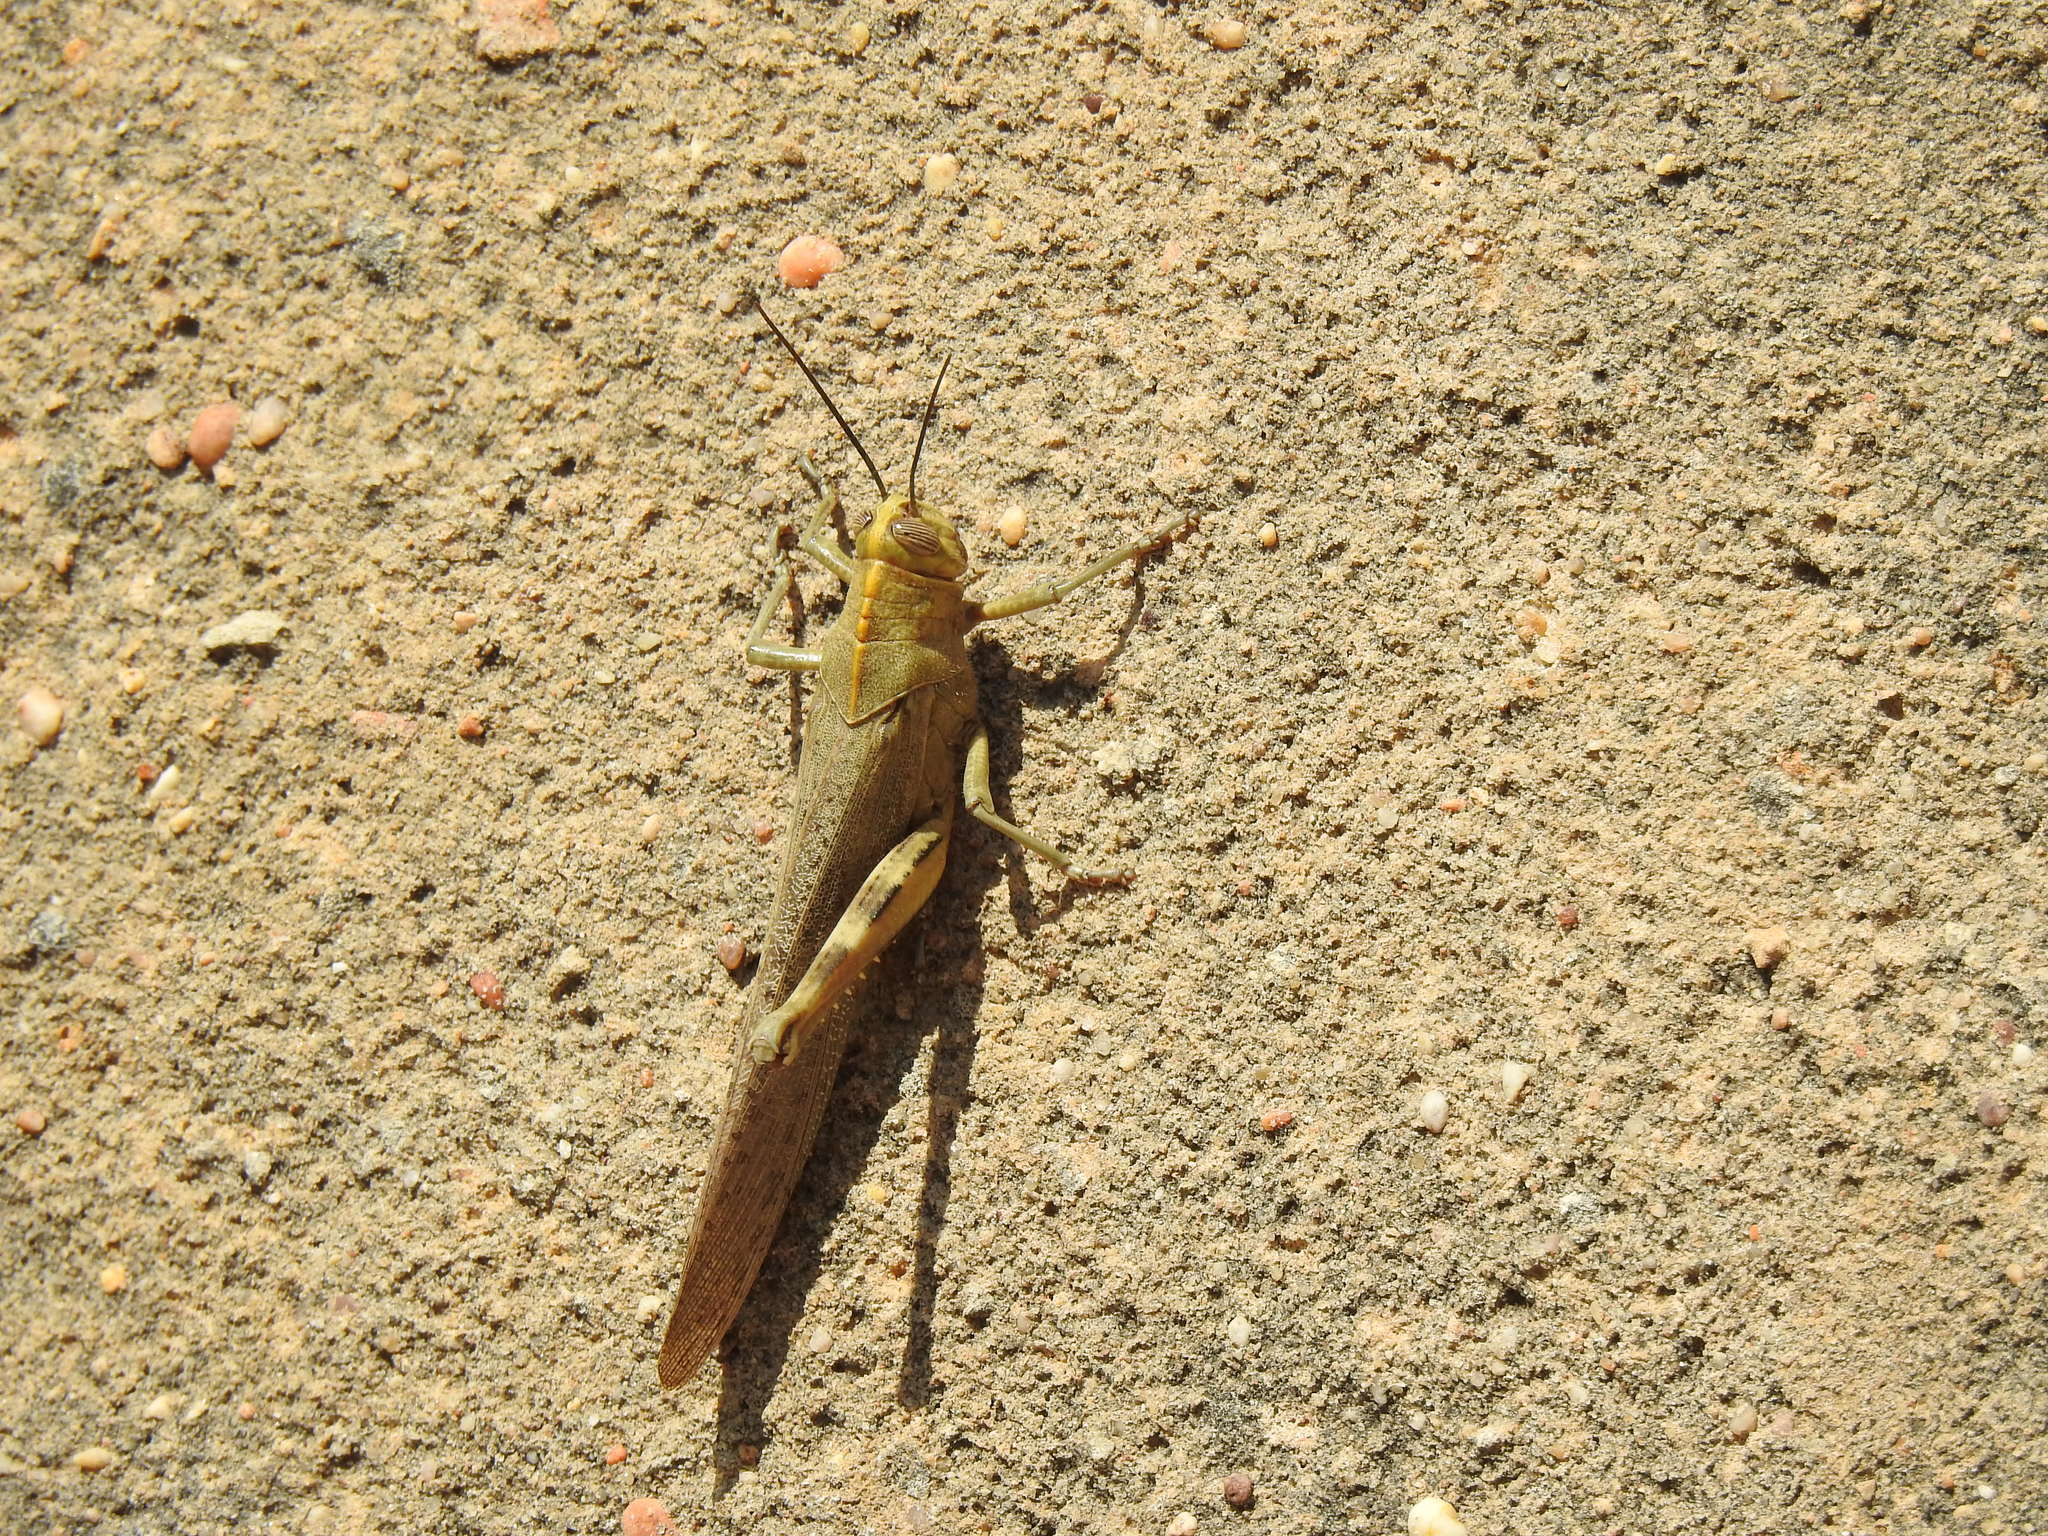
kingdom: Animalia
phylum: Arthropoda
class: Insecta
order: Orthoptera
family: Acrididae
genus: Anacridium
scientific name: Anacridium aegyptium
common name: Egyptian grasshopper
